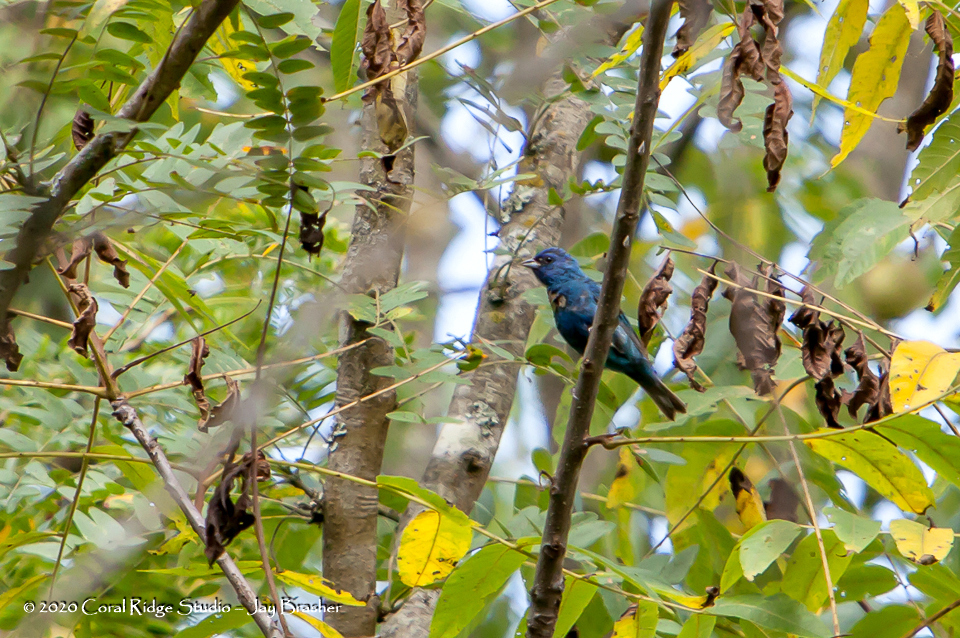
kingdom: Animalia
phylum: Chordata
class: Aves
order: Passeriformes
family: Cardinalidae
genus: Passerina
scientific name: Passerina cyanea
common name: Indigo bunting
